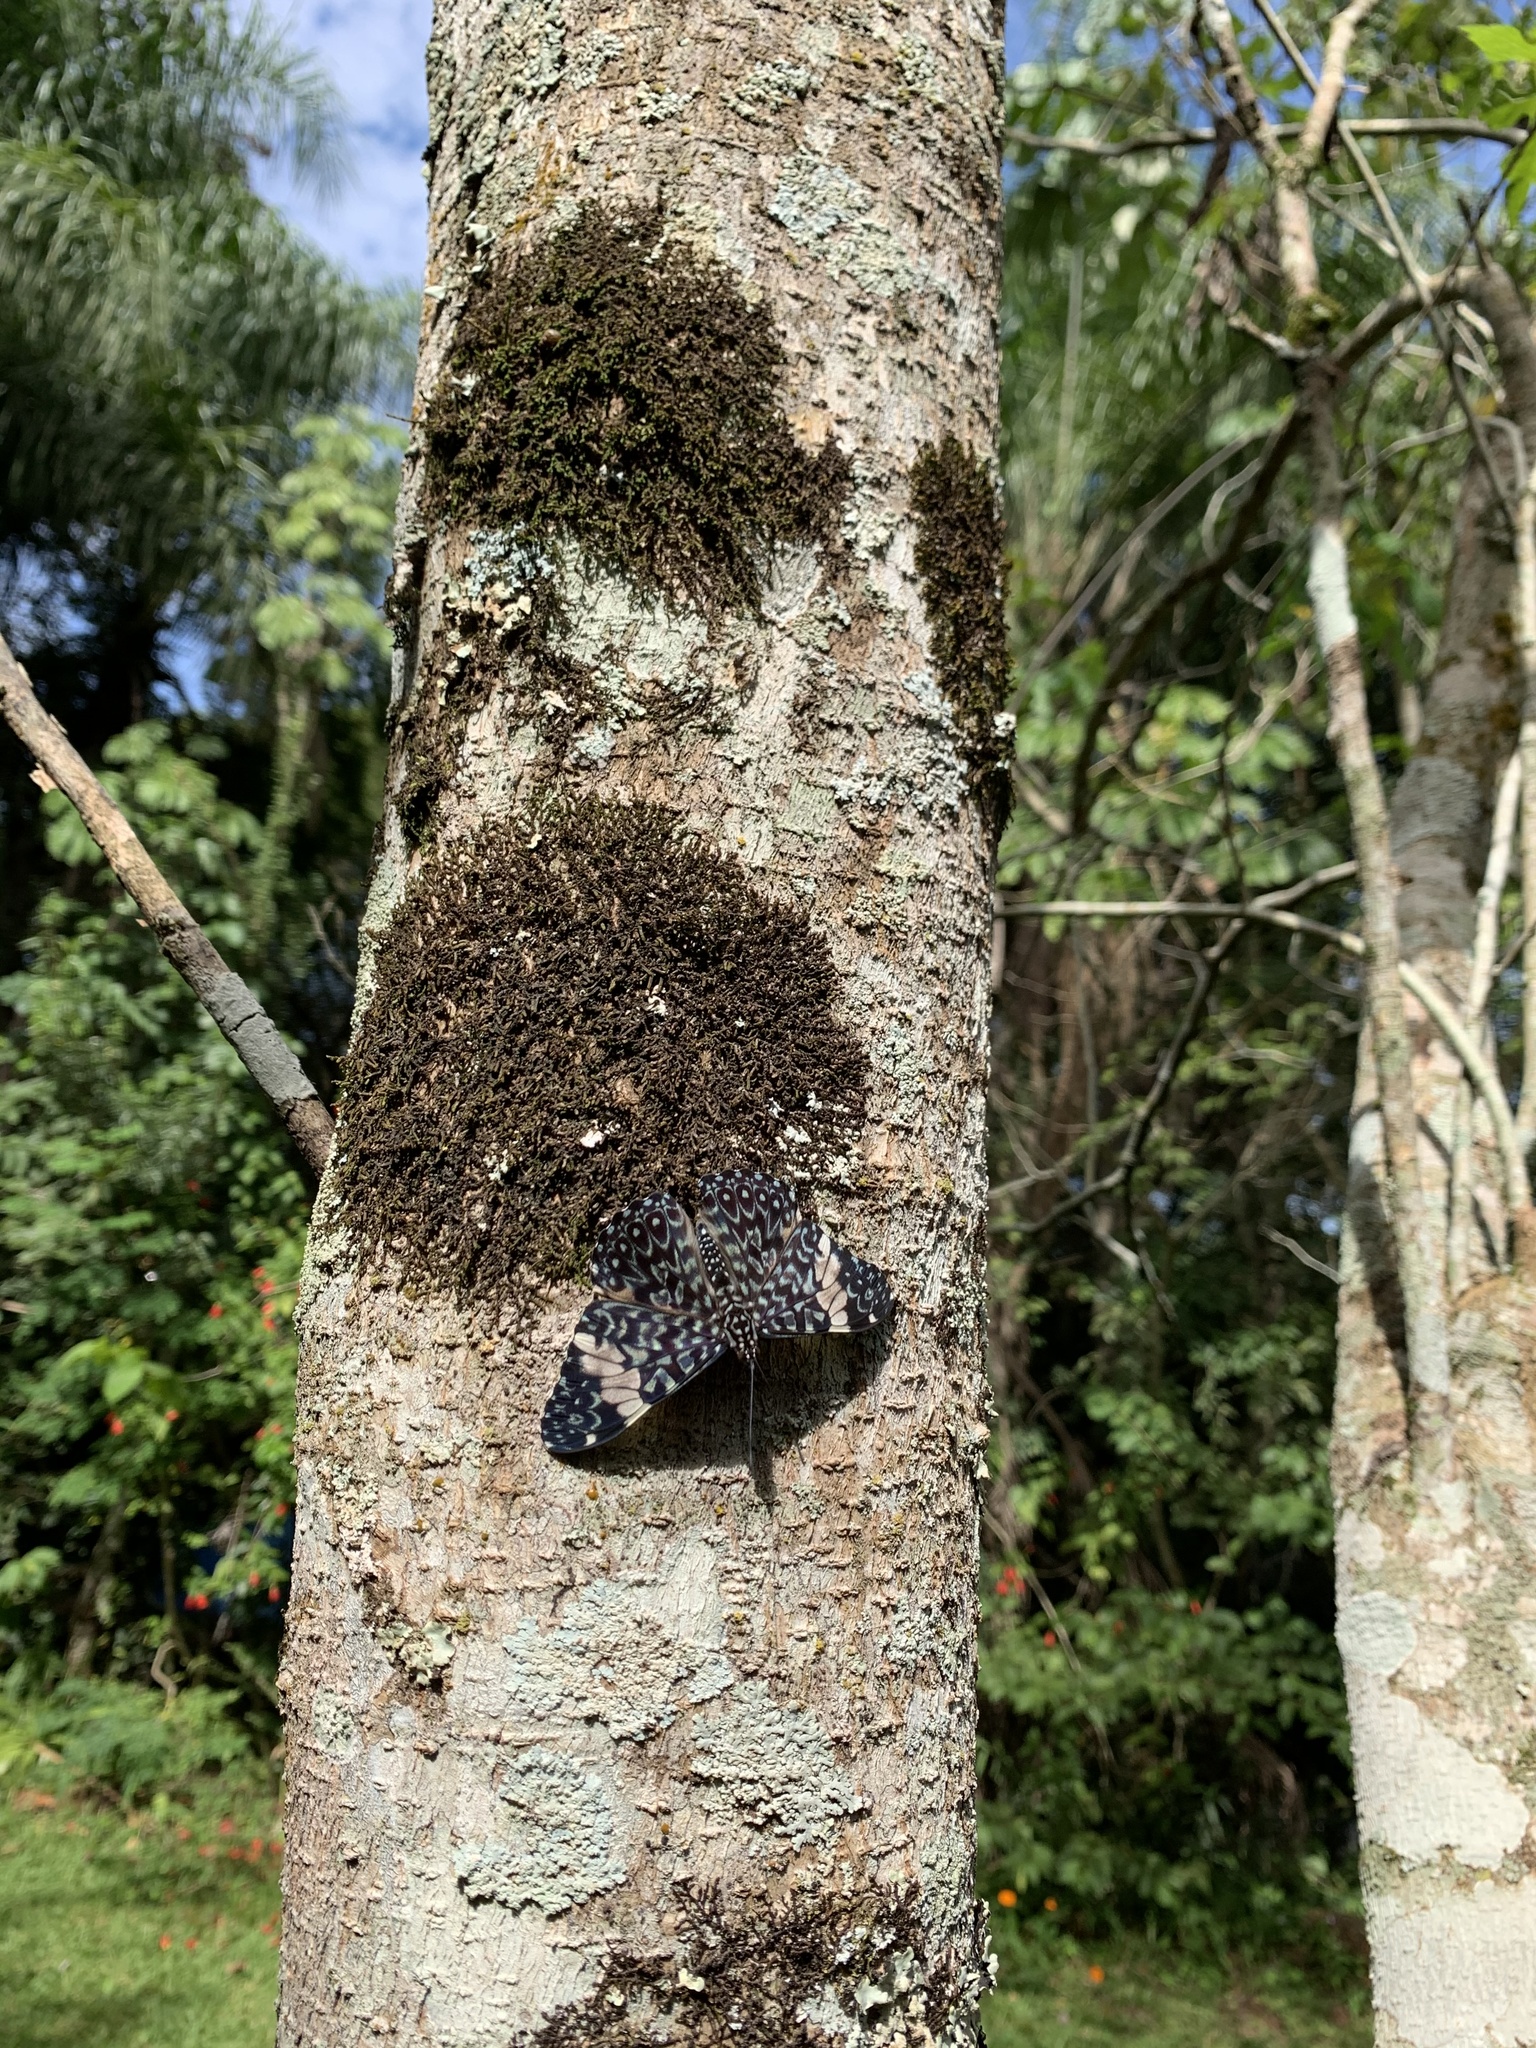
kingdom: Animalia
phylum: Arthropoda
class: Insecta
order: Lepidoptera
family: Nymphalidae
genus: Hamadryas
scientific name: Hamadryas amphinome
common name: Red cracker
